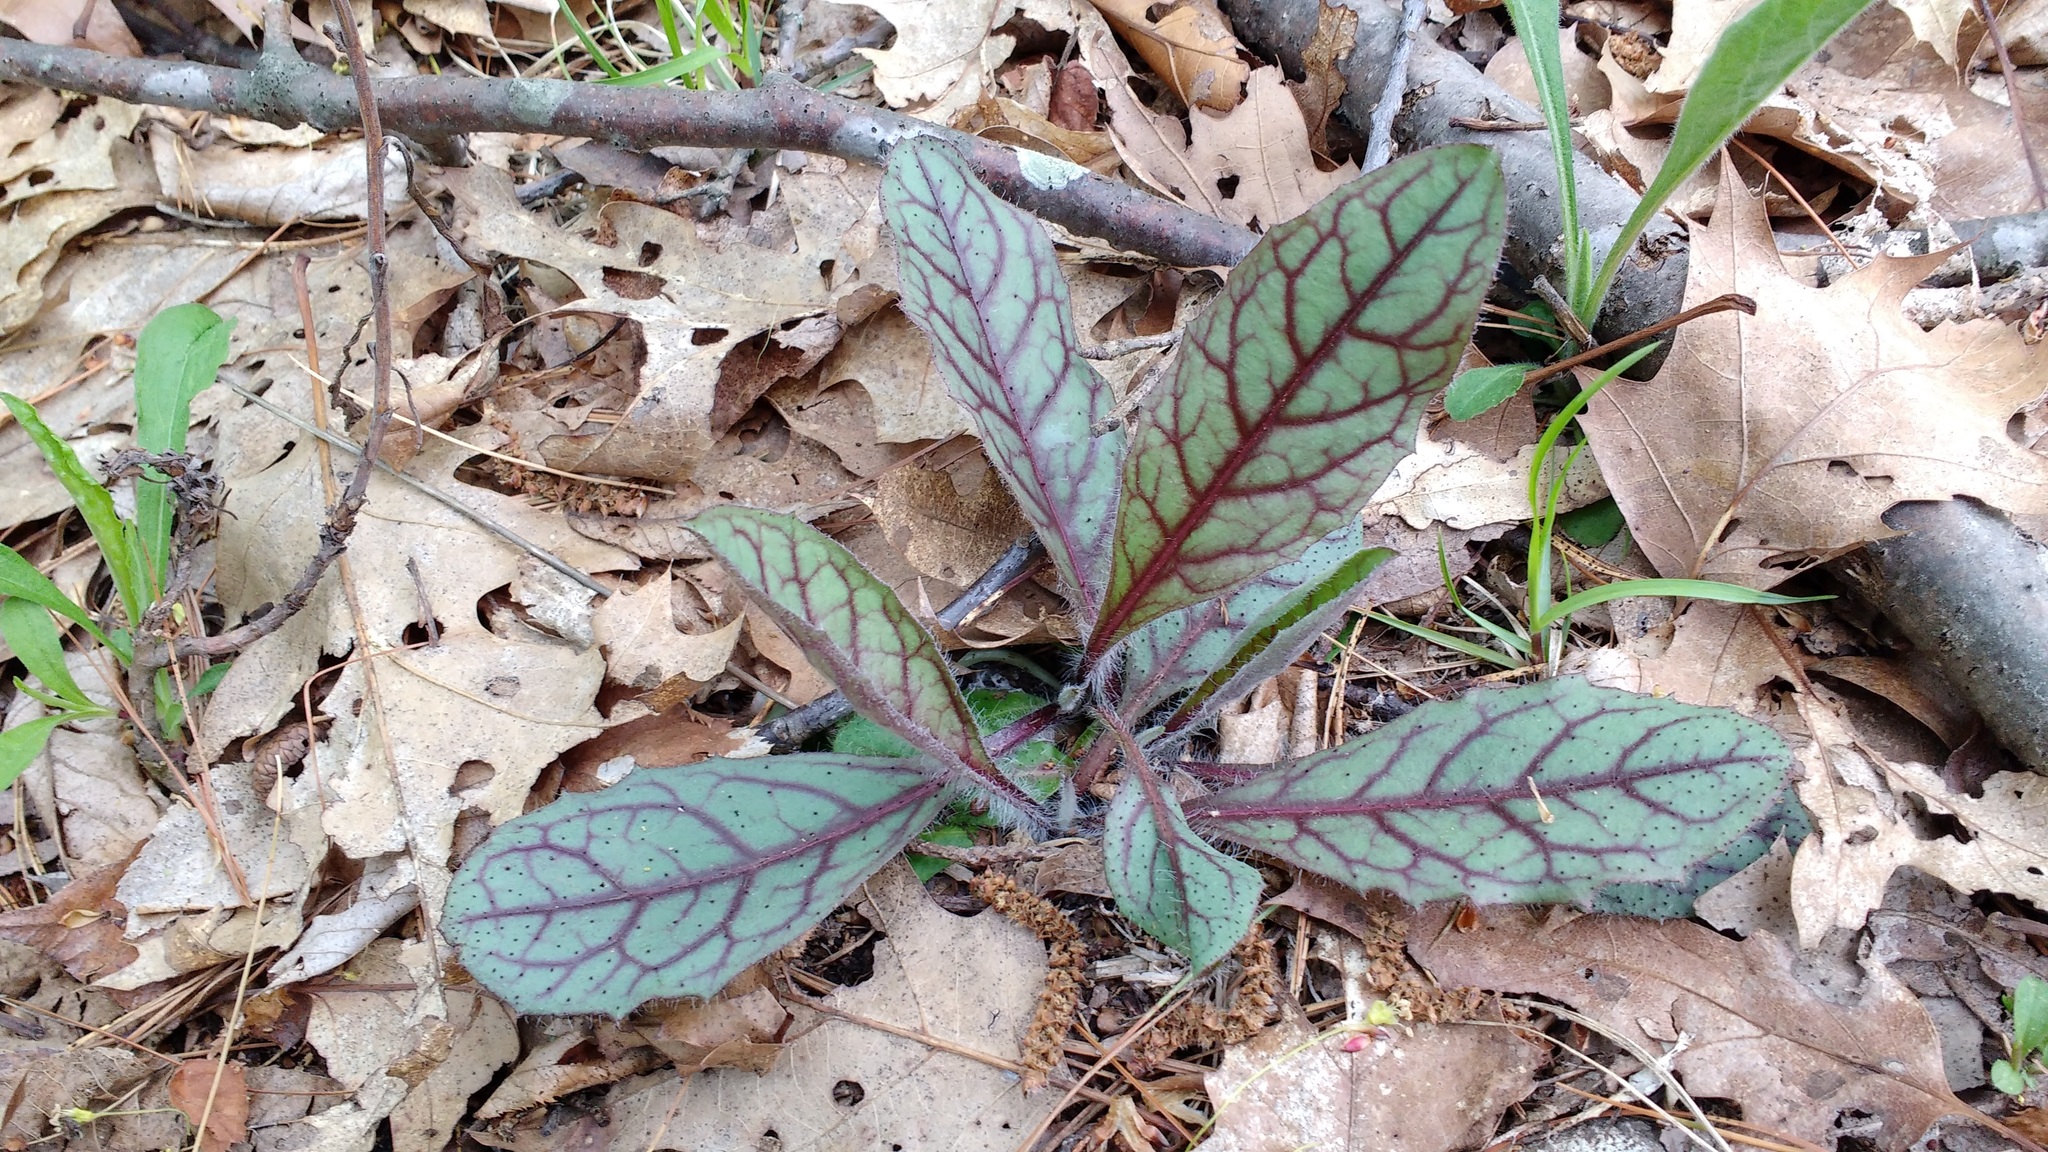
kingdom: Plantae
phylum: Tracheophyta
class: Magnoliopsida
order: Asterales
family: Asteraceae
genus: Hieracium
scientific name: Hieracium venosum
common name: Rattlesnake hawkweed
